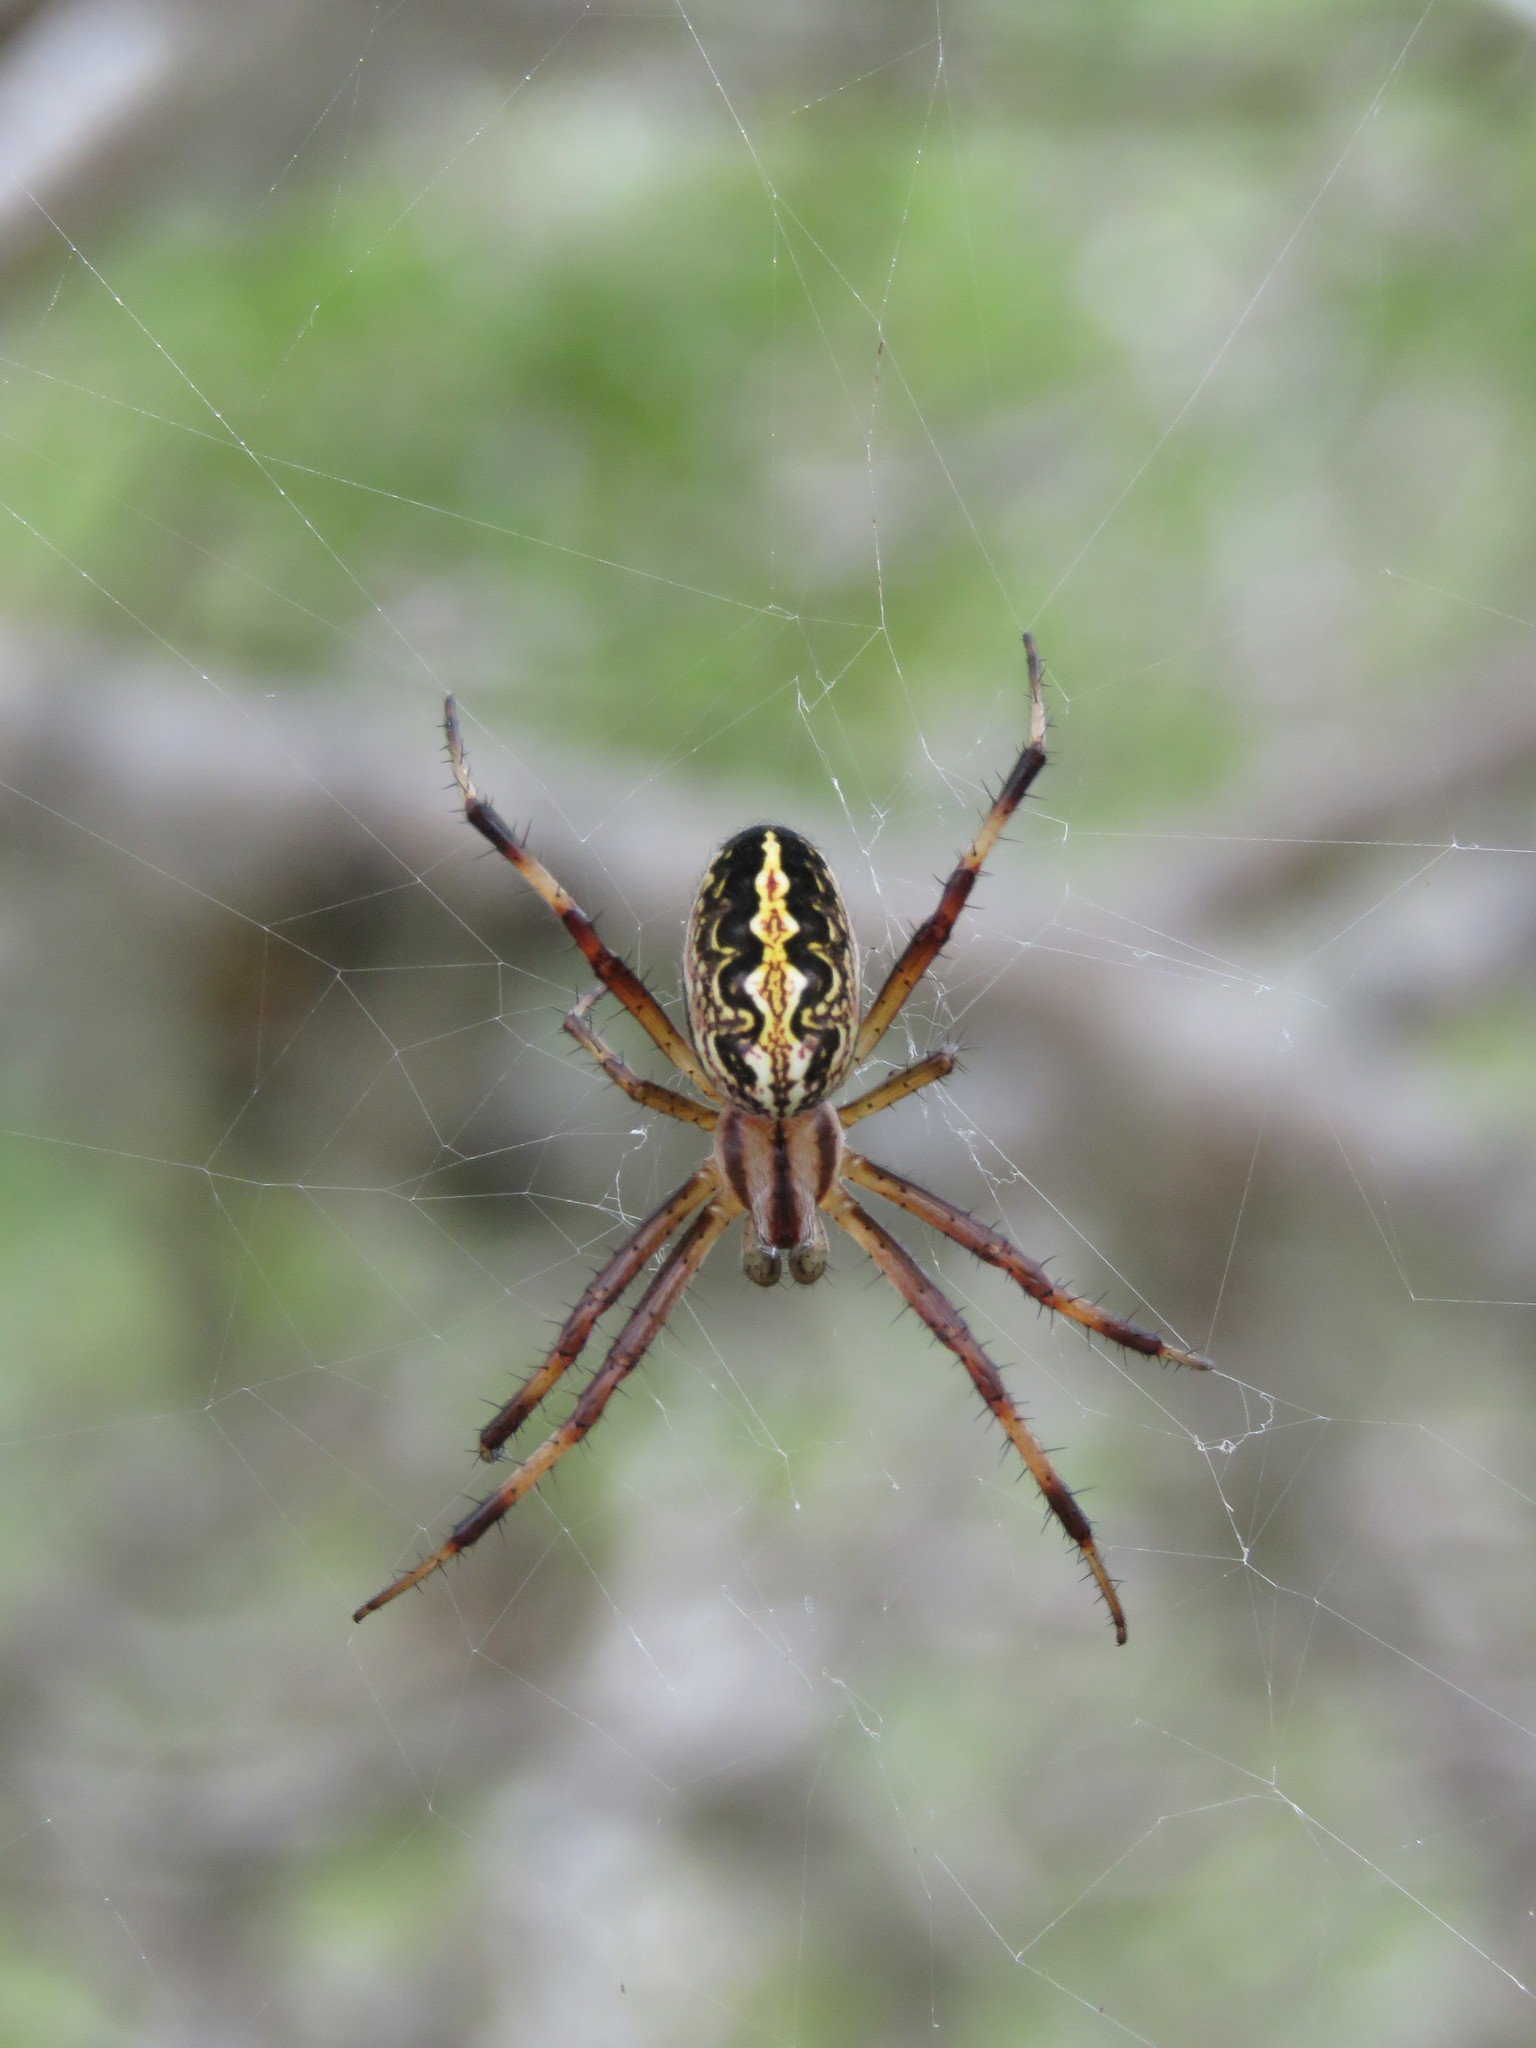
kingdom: Animalia
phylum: Arthropoda
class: Arachnida
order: Araneae
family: Araneidae
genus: Neoscona
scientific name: Neoscona oaxacensis
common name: Orb weavers
